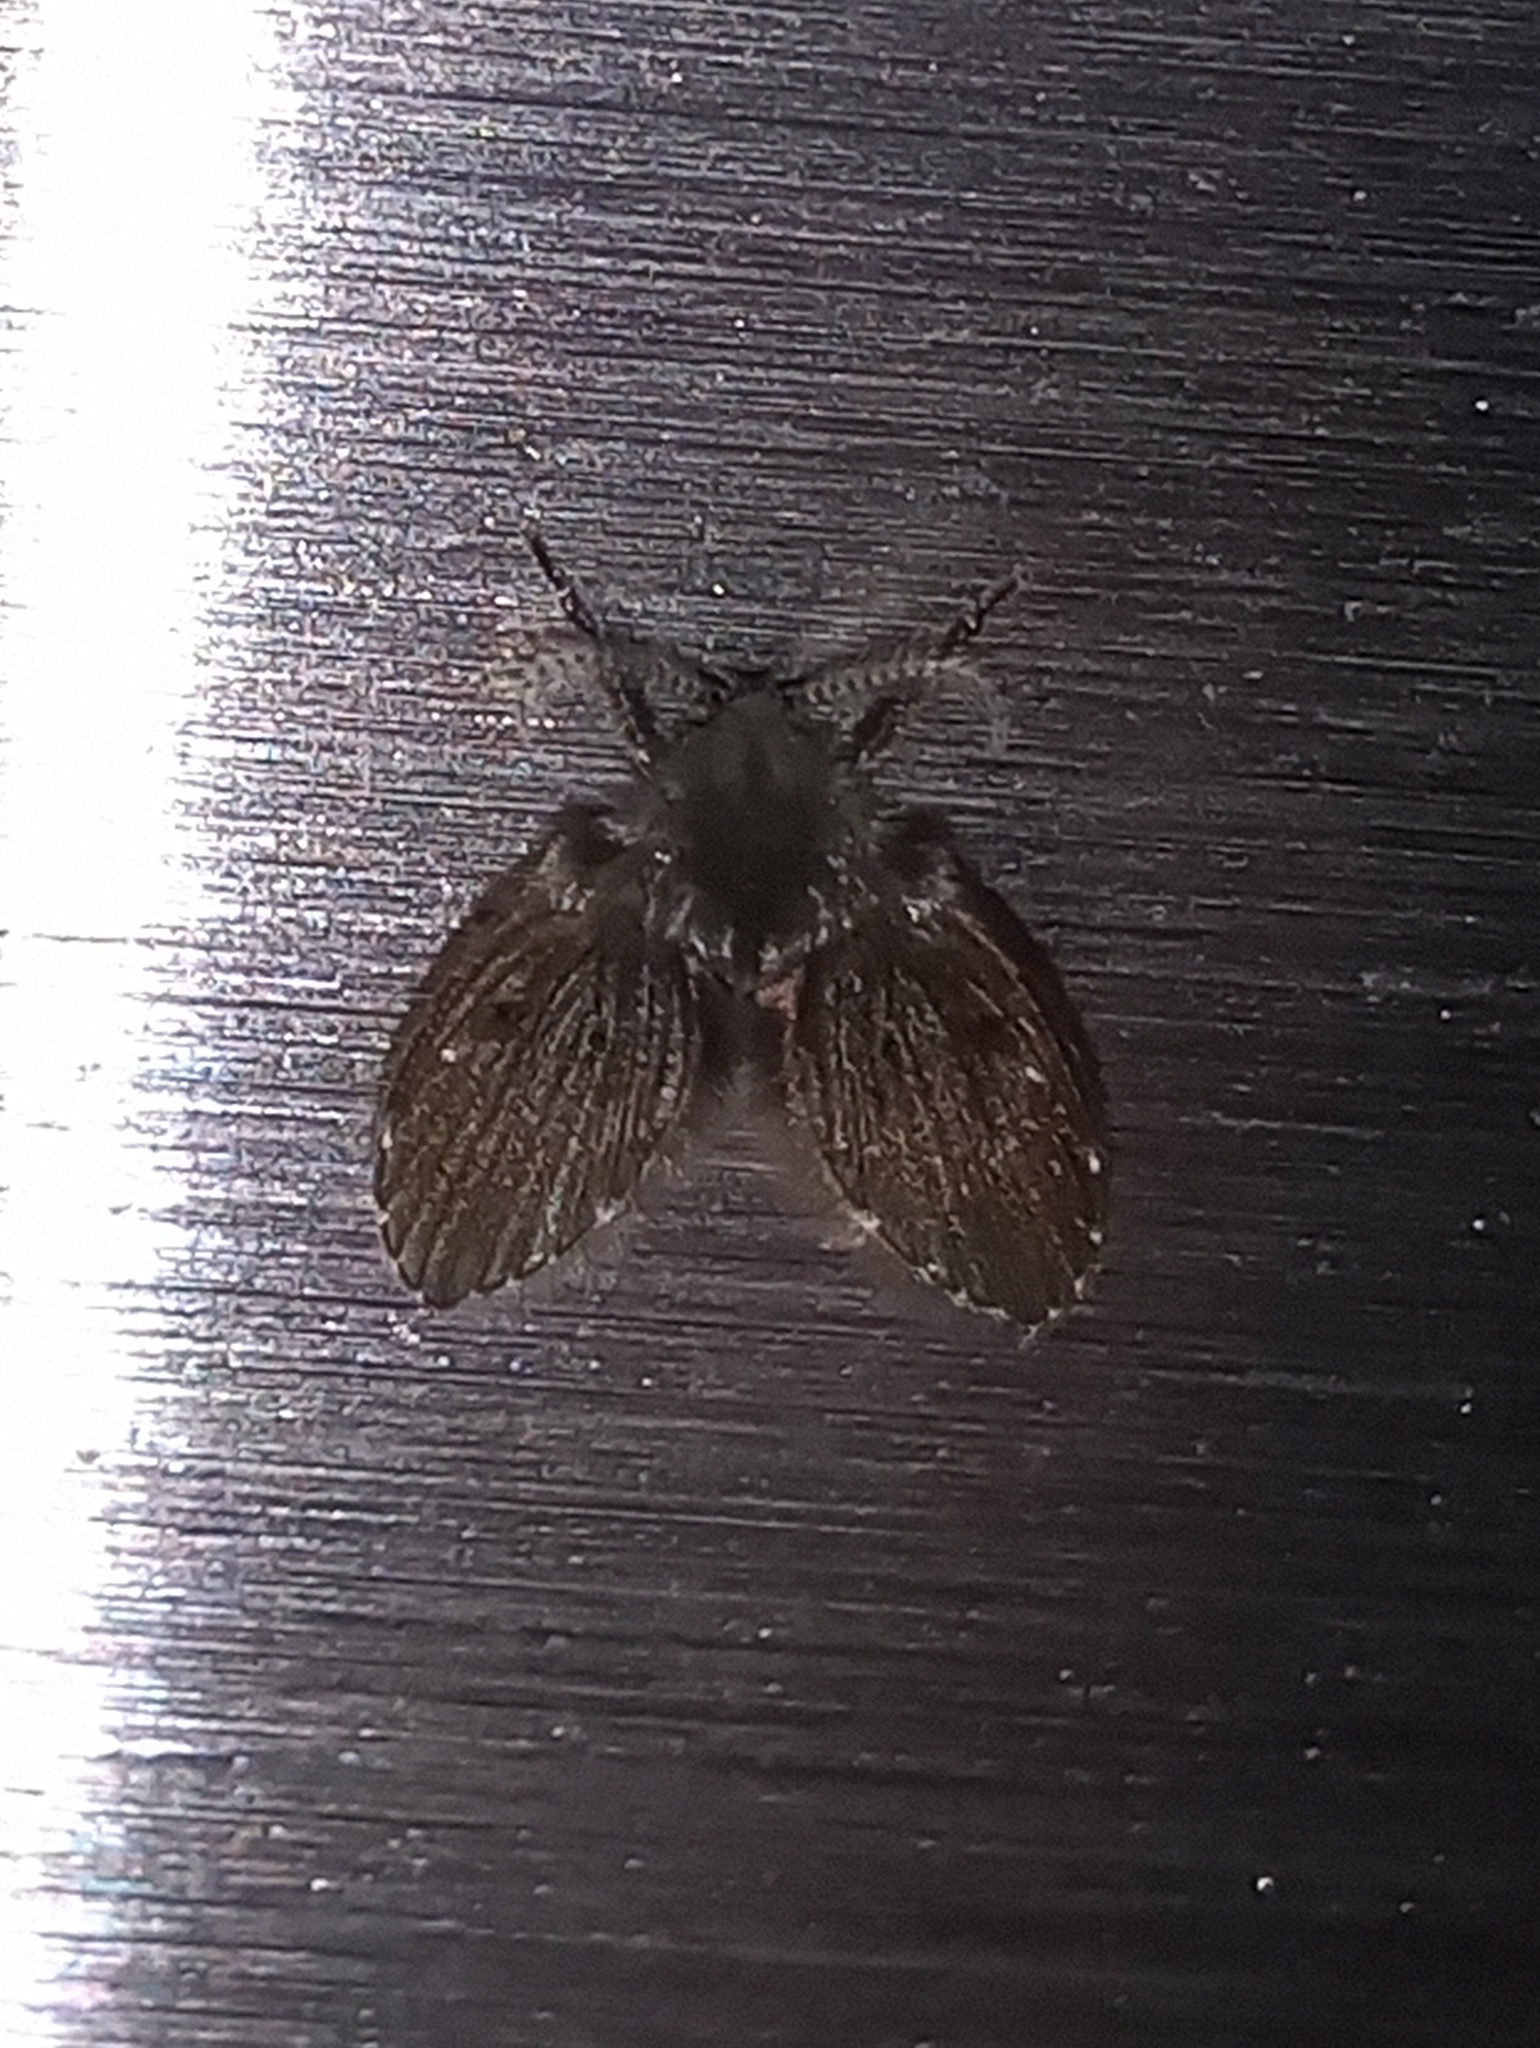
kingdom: Animalia
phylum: Arthropoda
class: Insecta
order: Diptera
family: Psychodidae
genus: Clogmia
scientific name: Clogmia albipunctatus
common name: White-spotted moth fly
